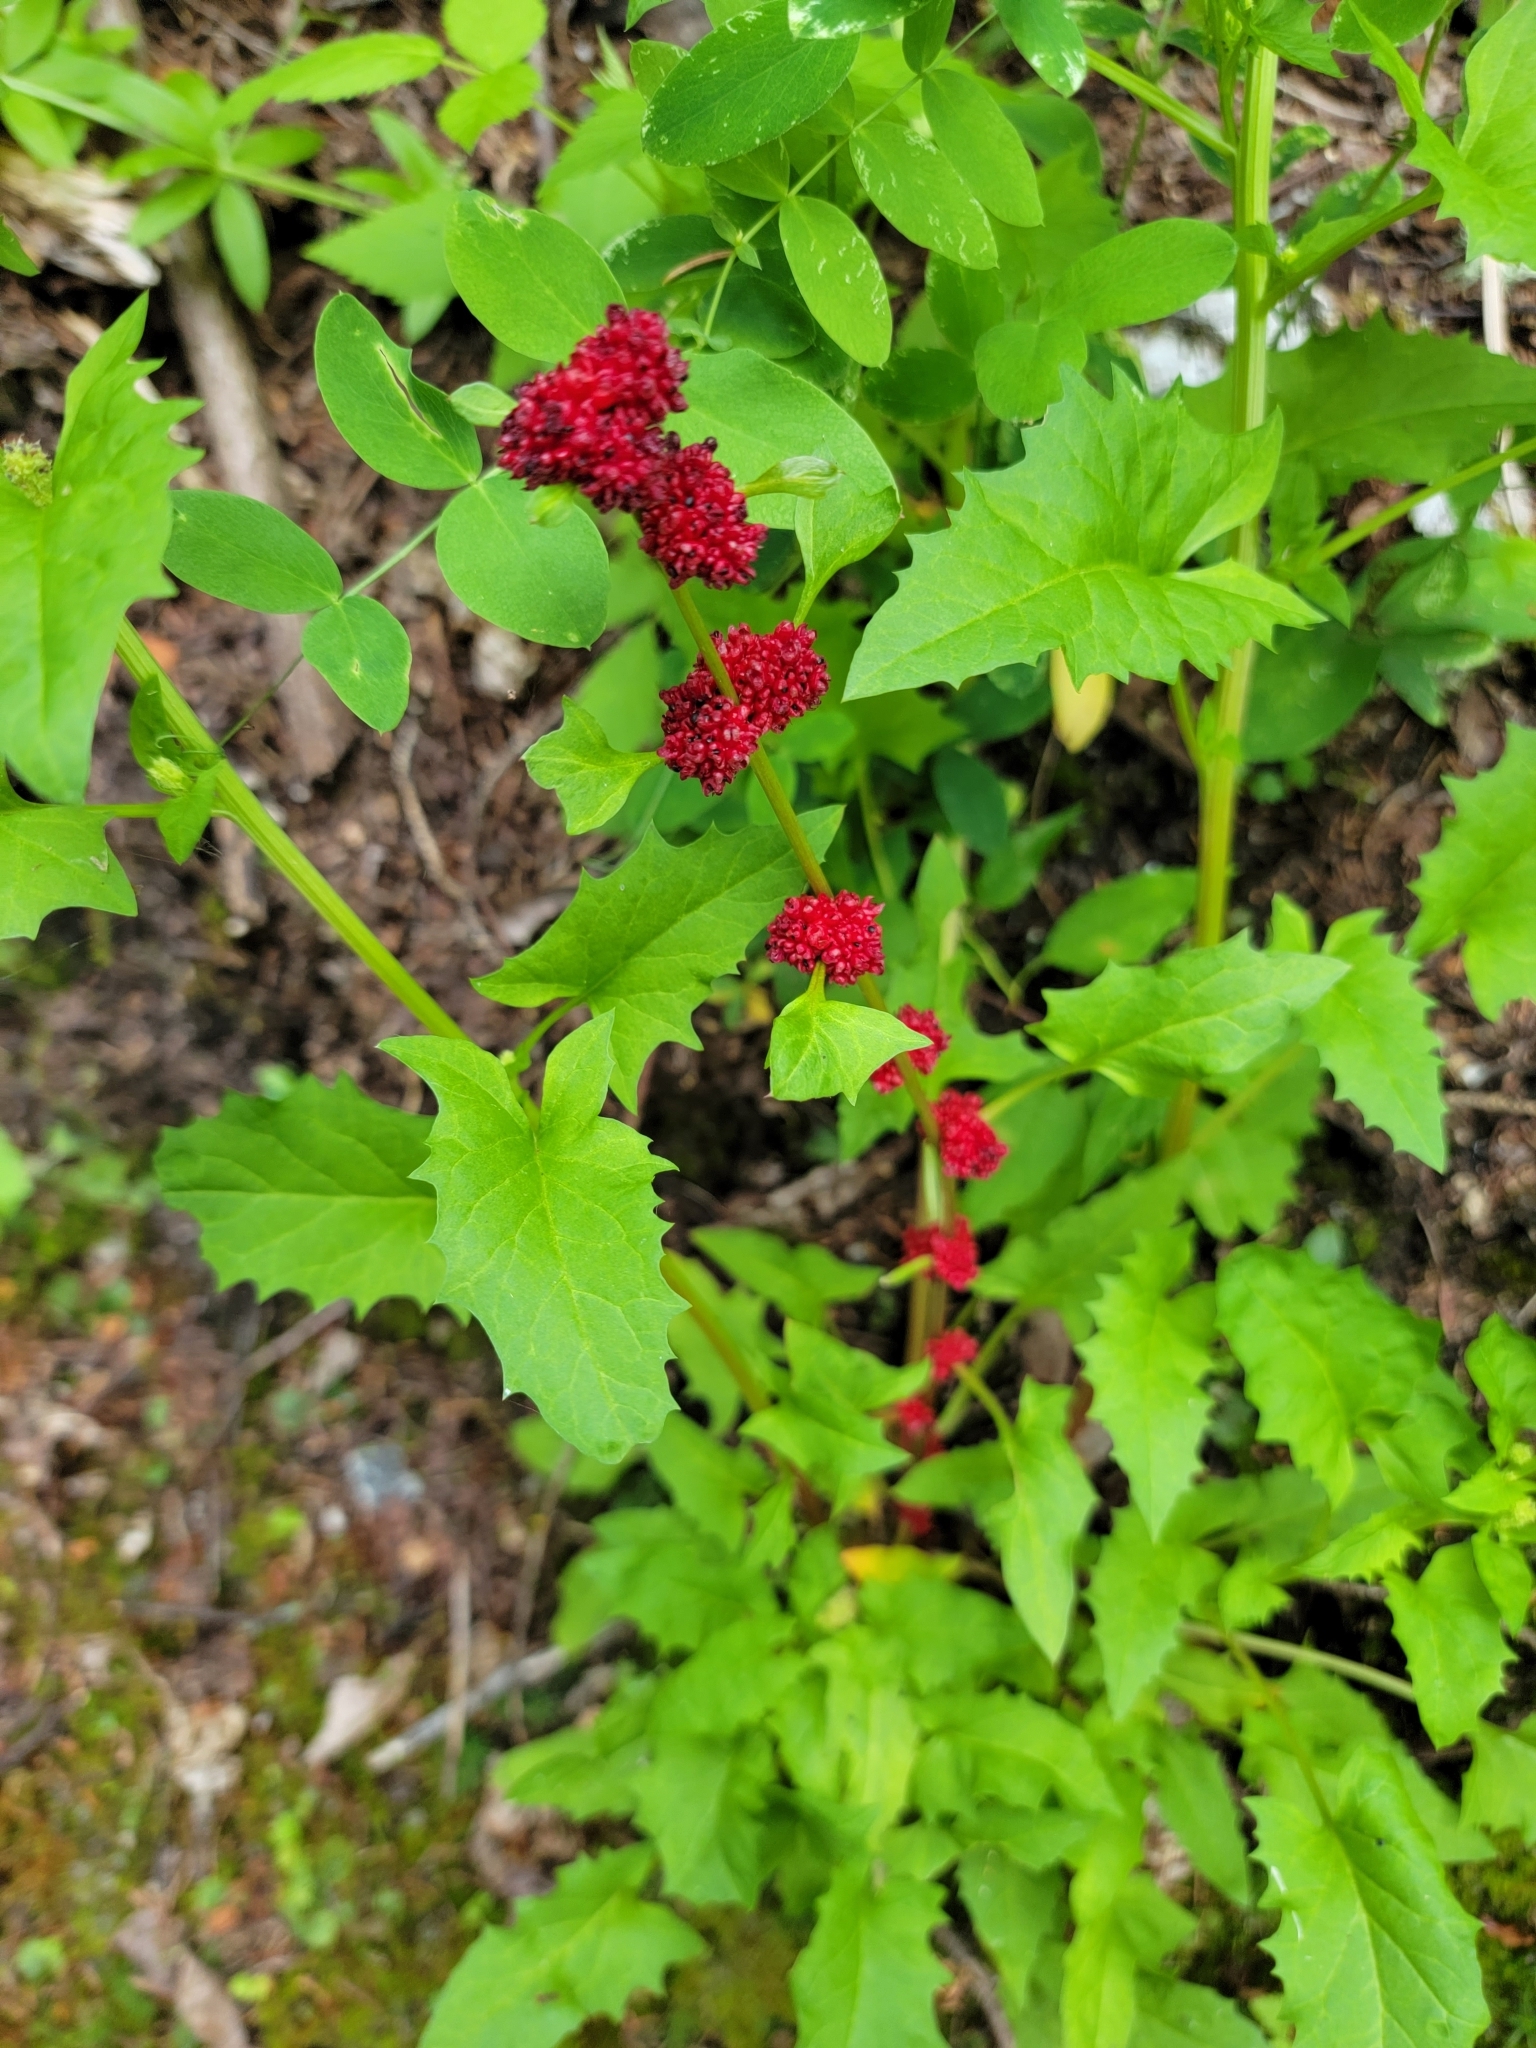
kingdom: Plantae
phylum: Tracheophyta
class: Magnoliopsida
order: Caryophyllales
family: Amaranthaceae
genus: Blitum
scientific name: Blitum capitatum
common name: Strawberry-blight
